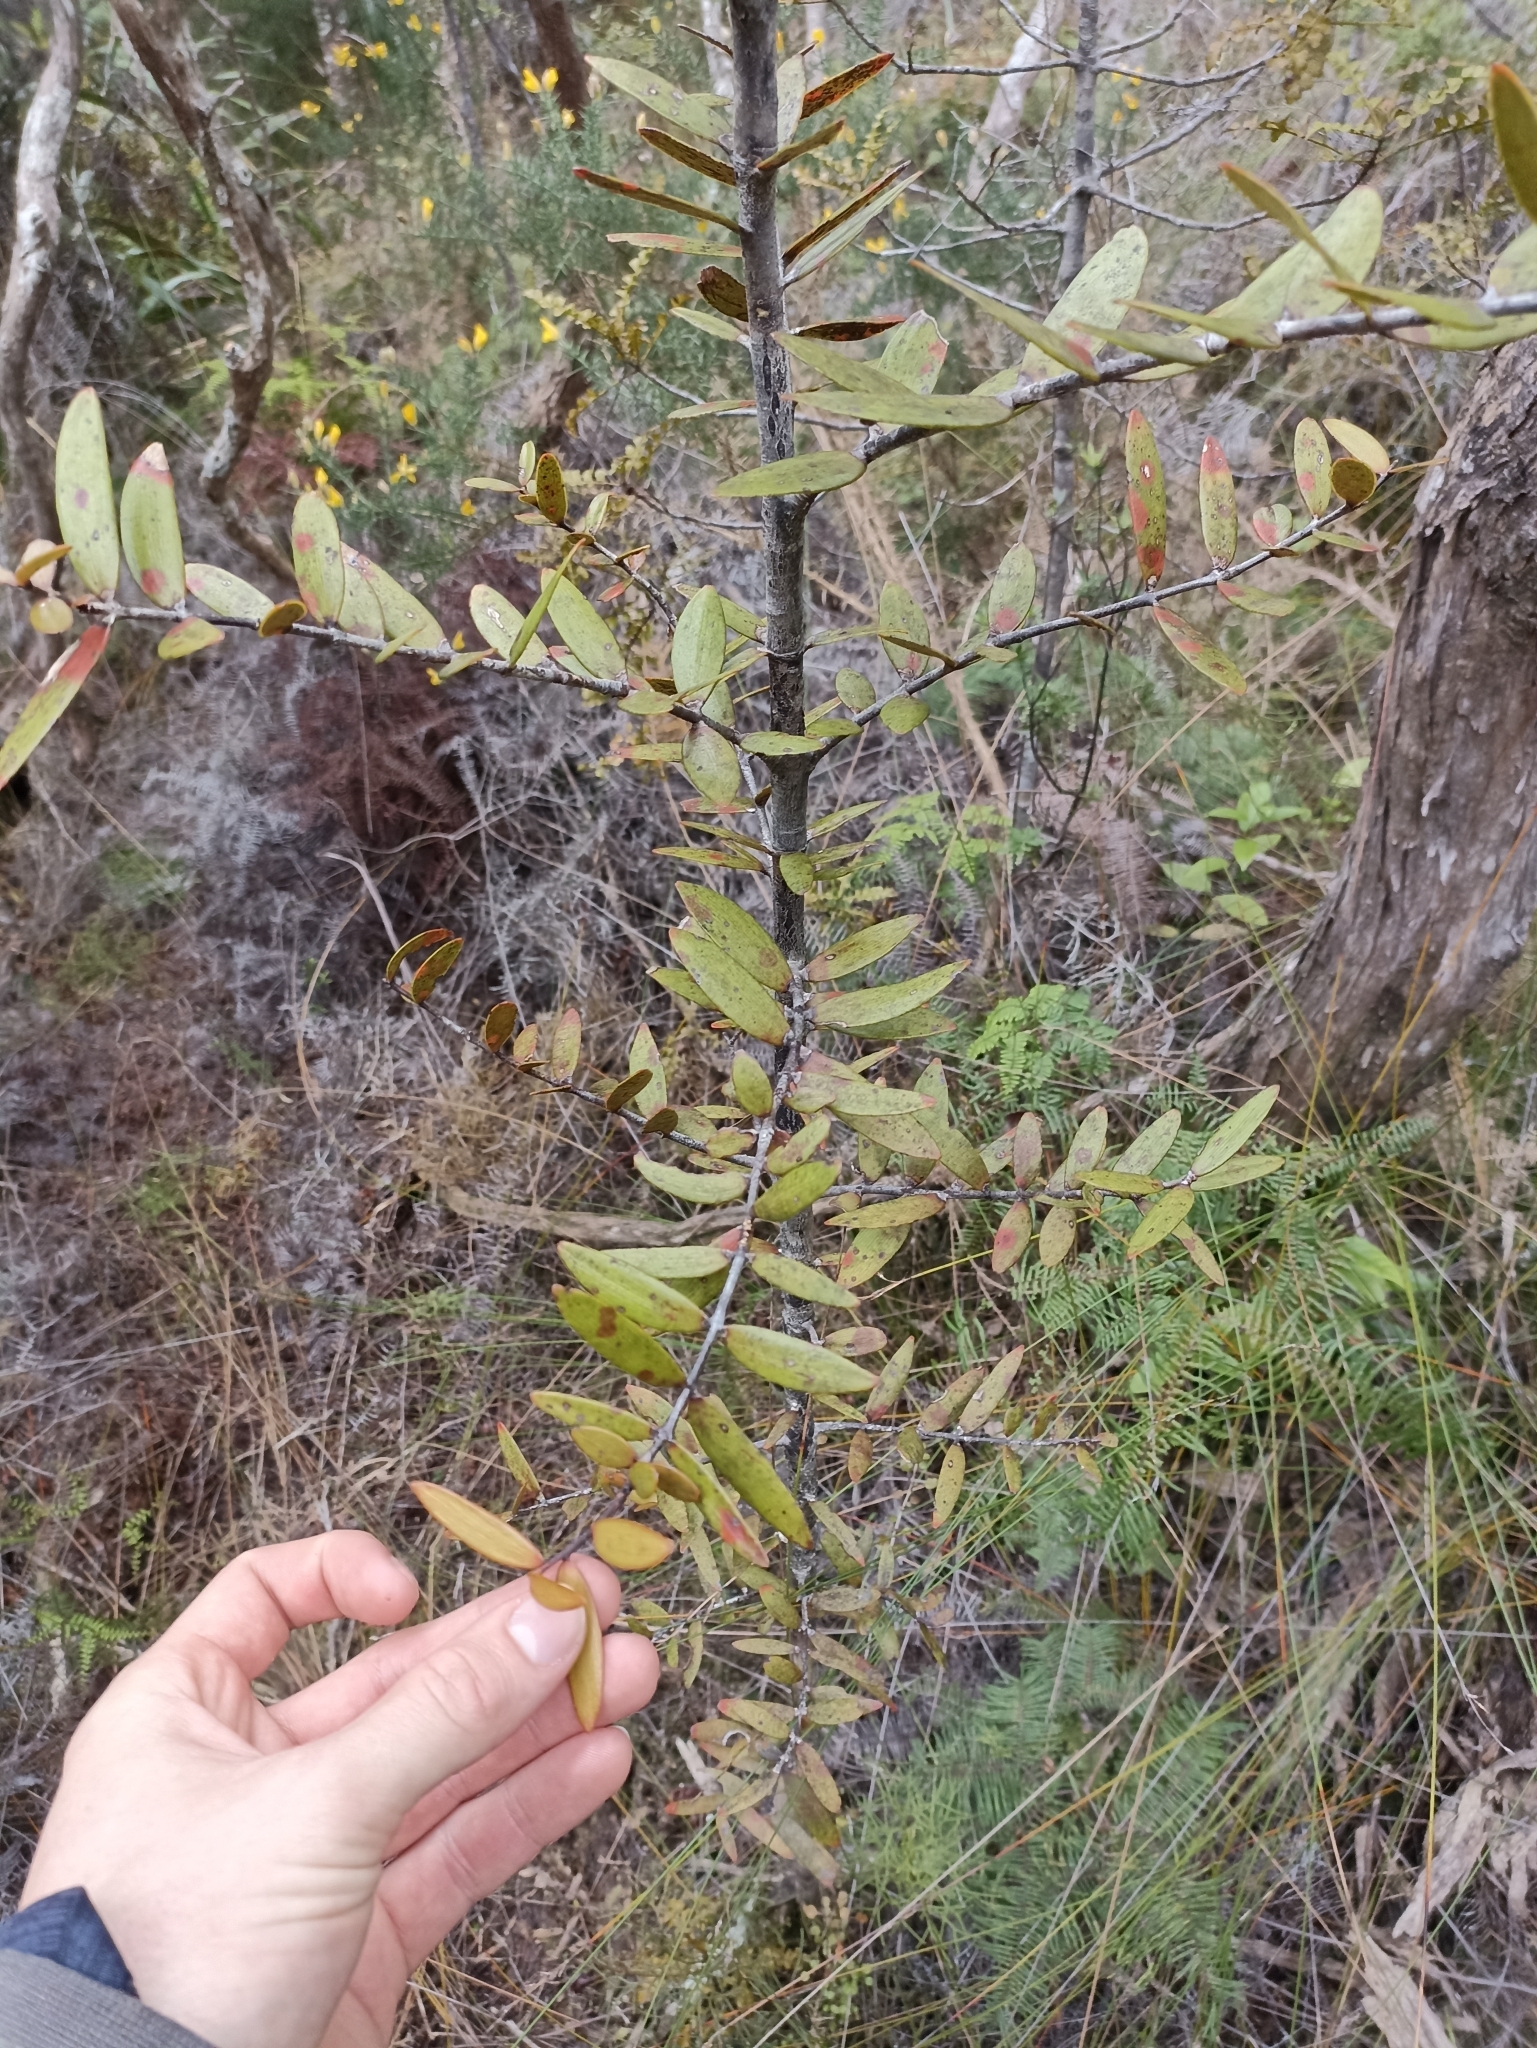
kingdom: Plantae
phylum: Tracheophyta
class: Pinopsida
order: Pinales
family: Araucariaceae
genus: Agathis
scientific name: Agathis australis
